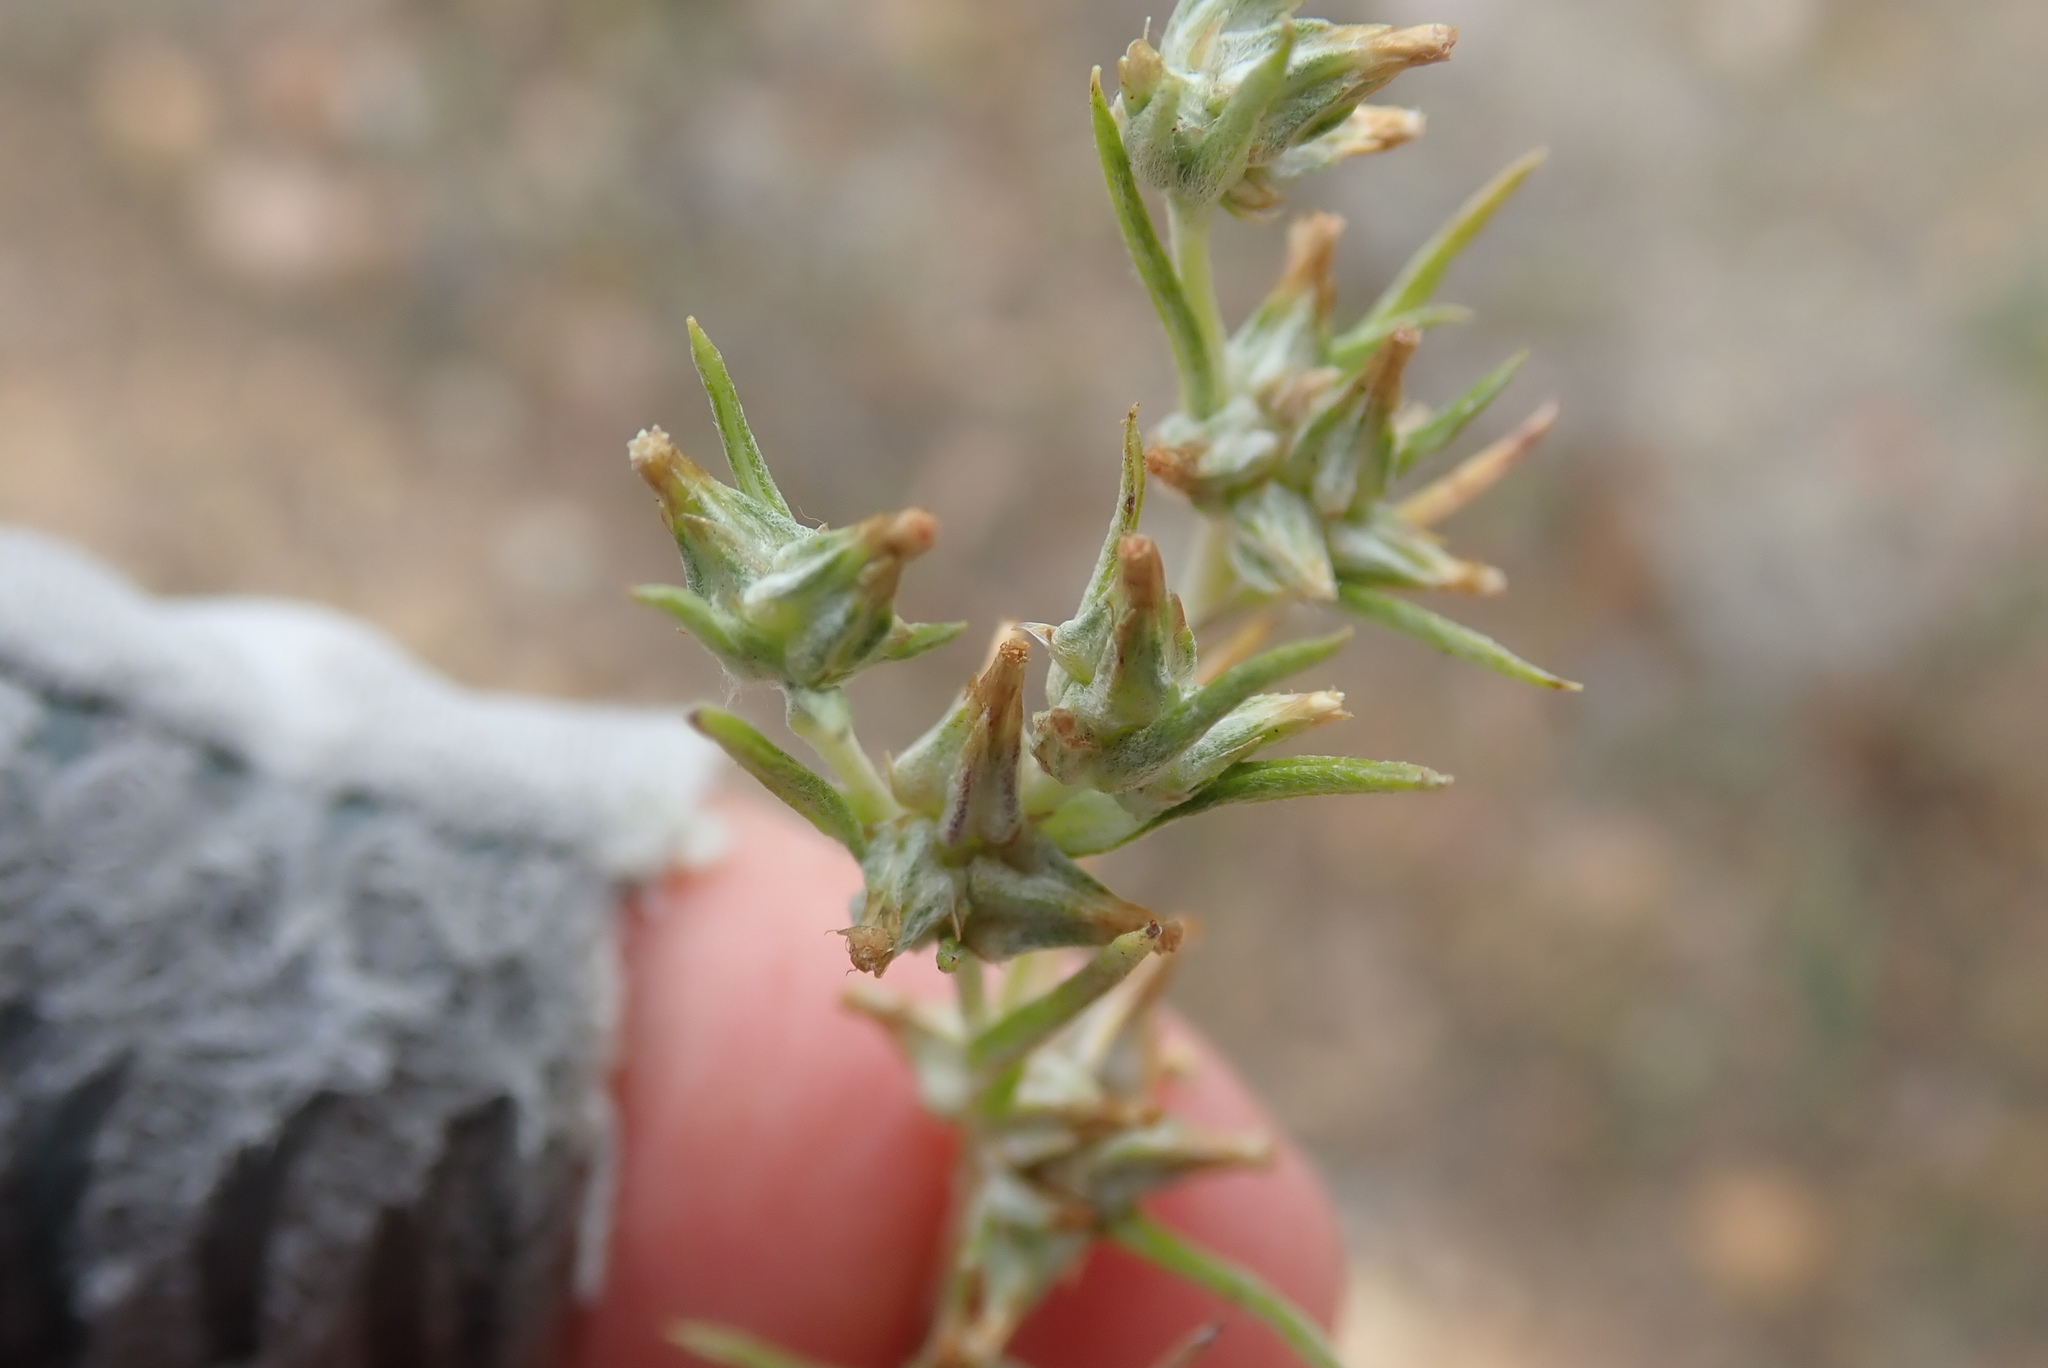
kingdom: Plantae
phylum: Tracheophyta
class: Magnoliopsida
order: Asterales
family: Asteraceae
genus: Logfia
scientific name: Logfia gallica
